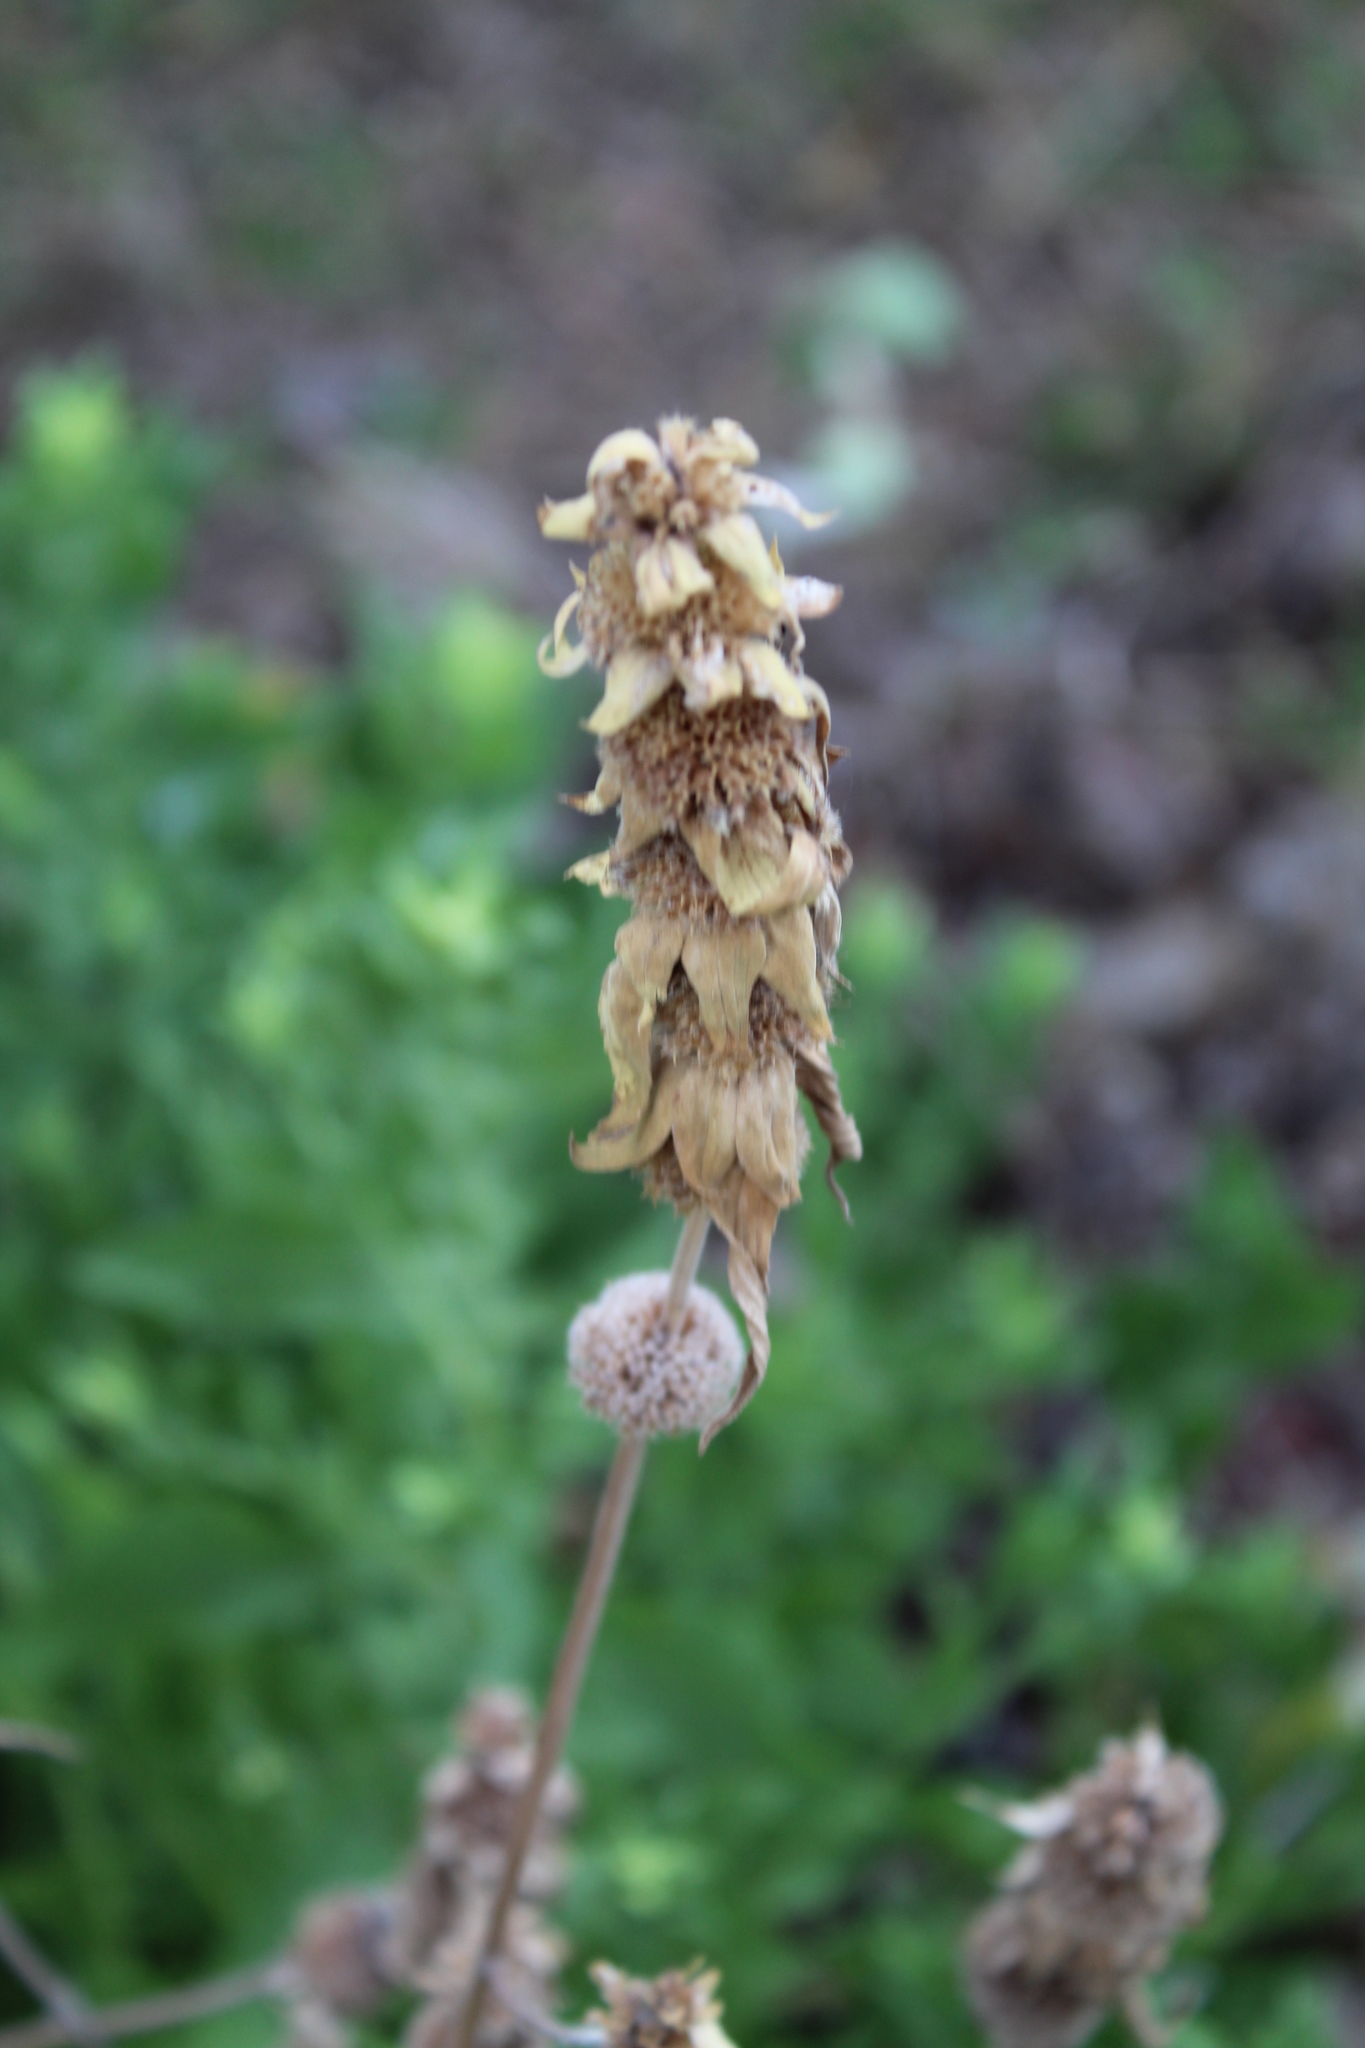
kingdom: Plantae
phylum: Tracheophyta
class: Magnoliopsida
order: Lamiales
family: Lamiaceae
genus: Monarda
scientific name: Monarda punctata
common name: Dotted monarda
